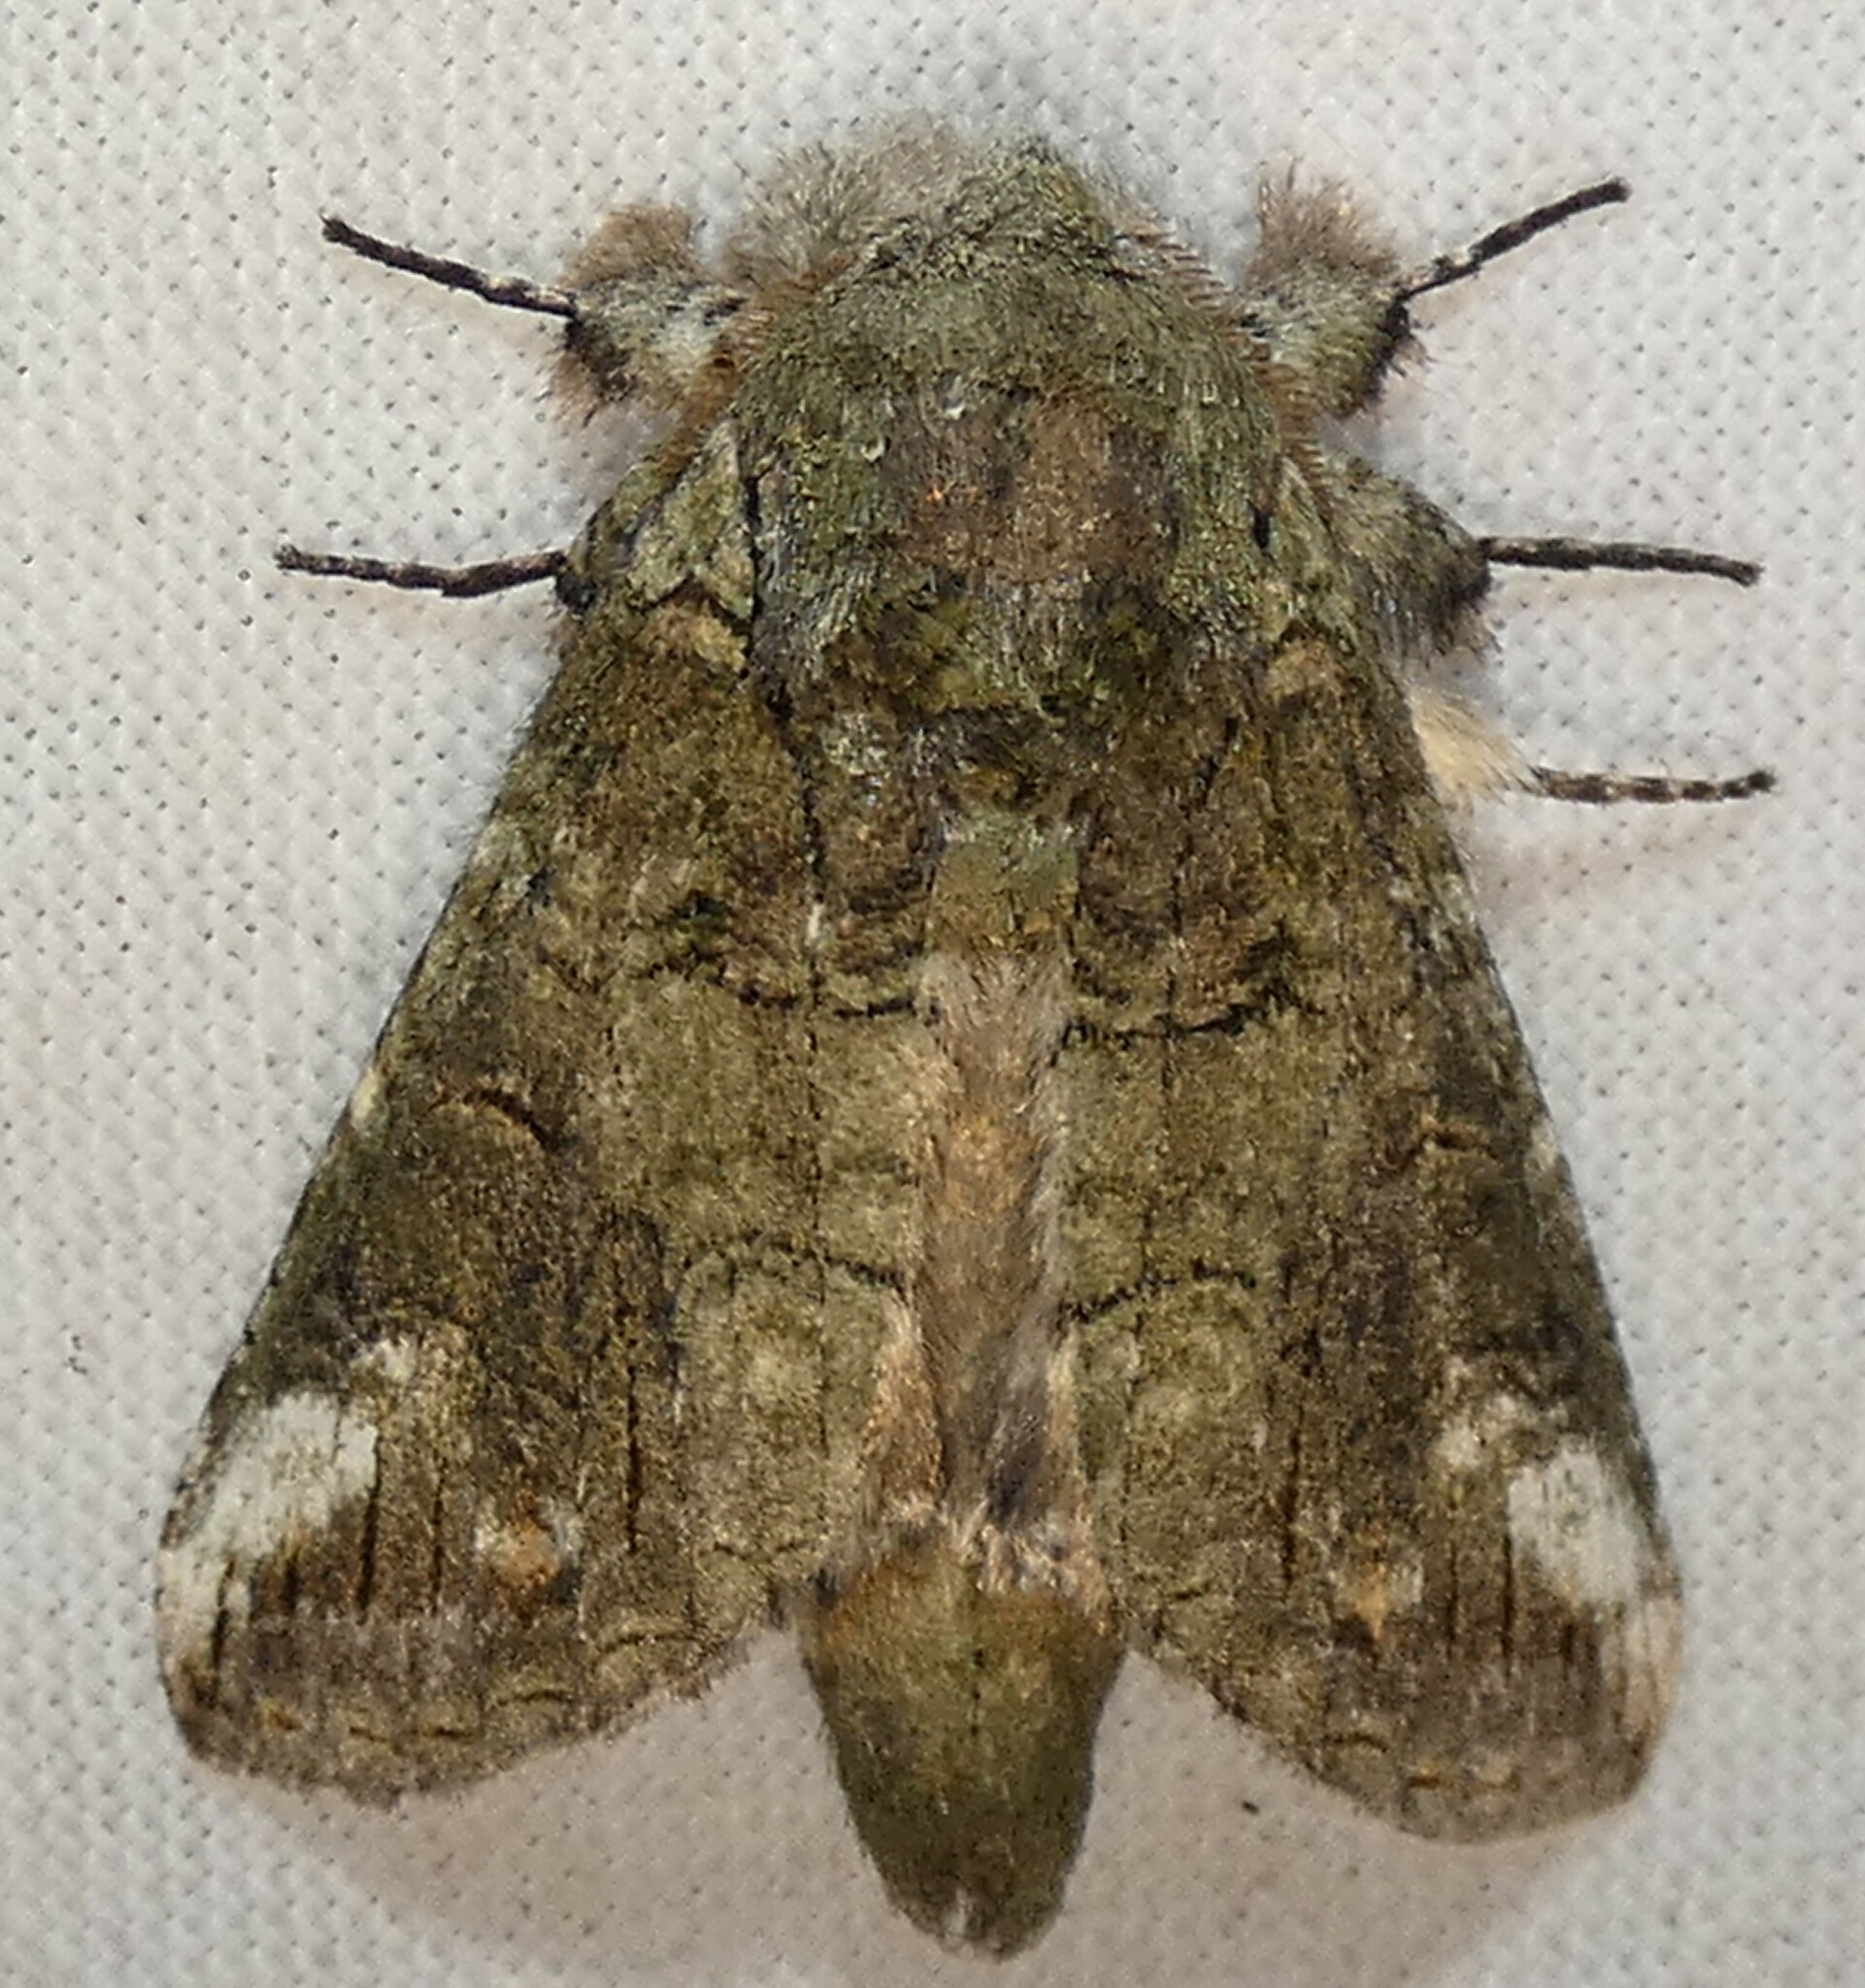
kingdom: Animalia
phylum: Arthropoda
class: Insecta
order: Lepidoptera
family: Notodontidae
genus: Heterocampa
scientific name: Heterocampa obliqua
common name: Oblique heterocampa
